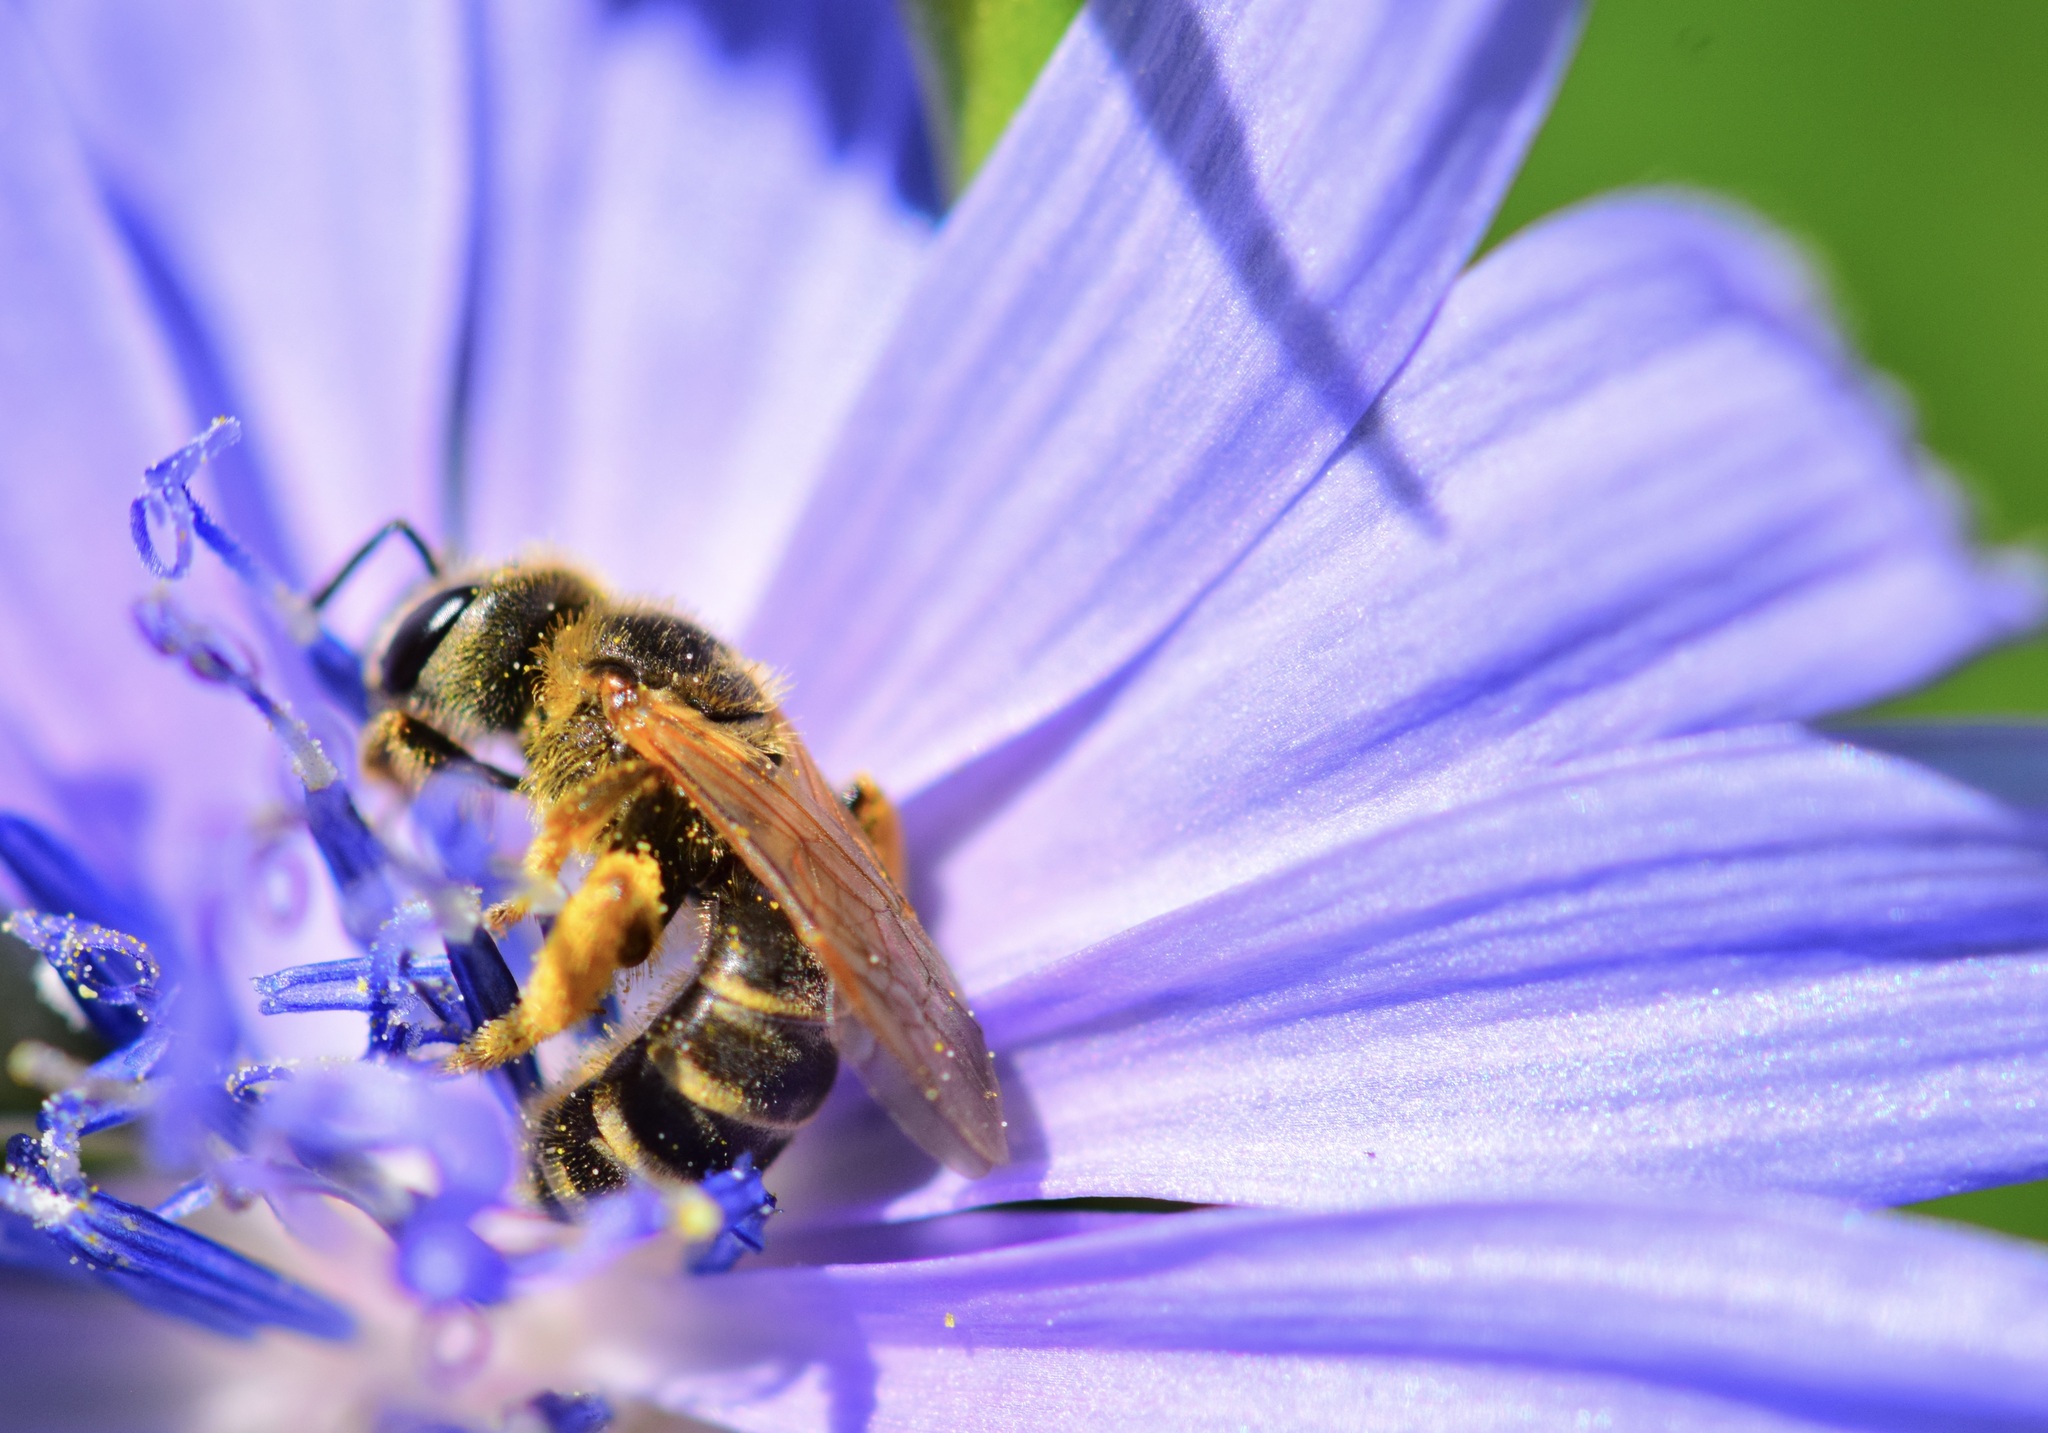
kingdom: Animalia
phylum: Arthropoda
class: Insecta
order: Hymenoptera
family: Halictidae
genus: Halictus
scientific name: Halictus ligatus
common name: Ligated furrow bee
